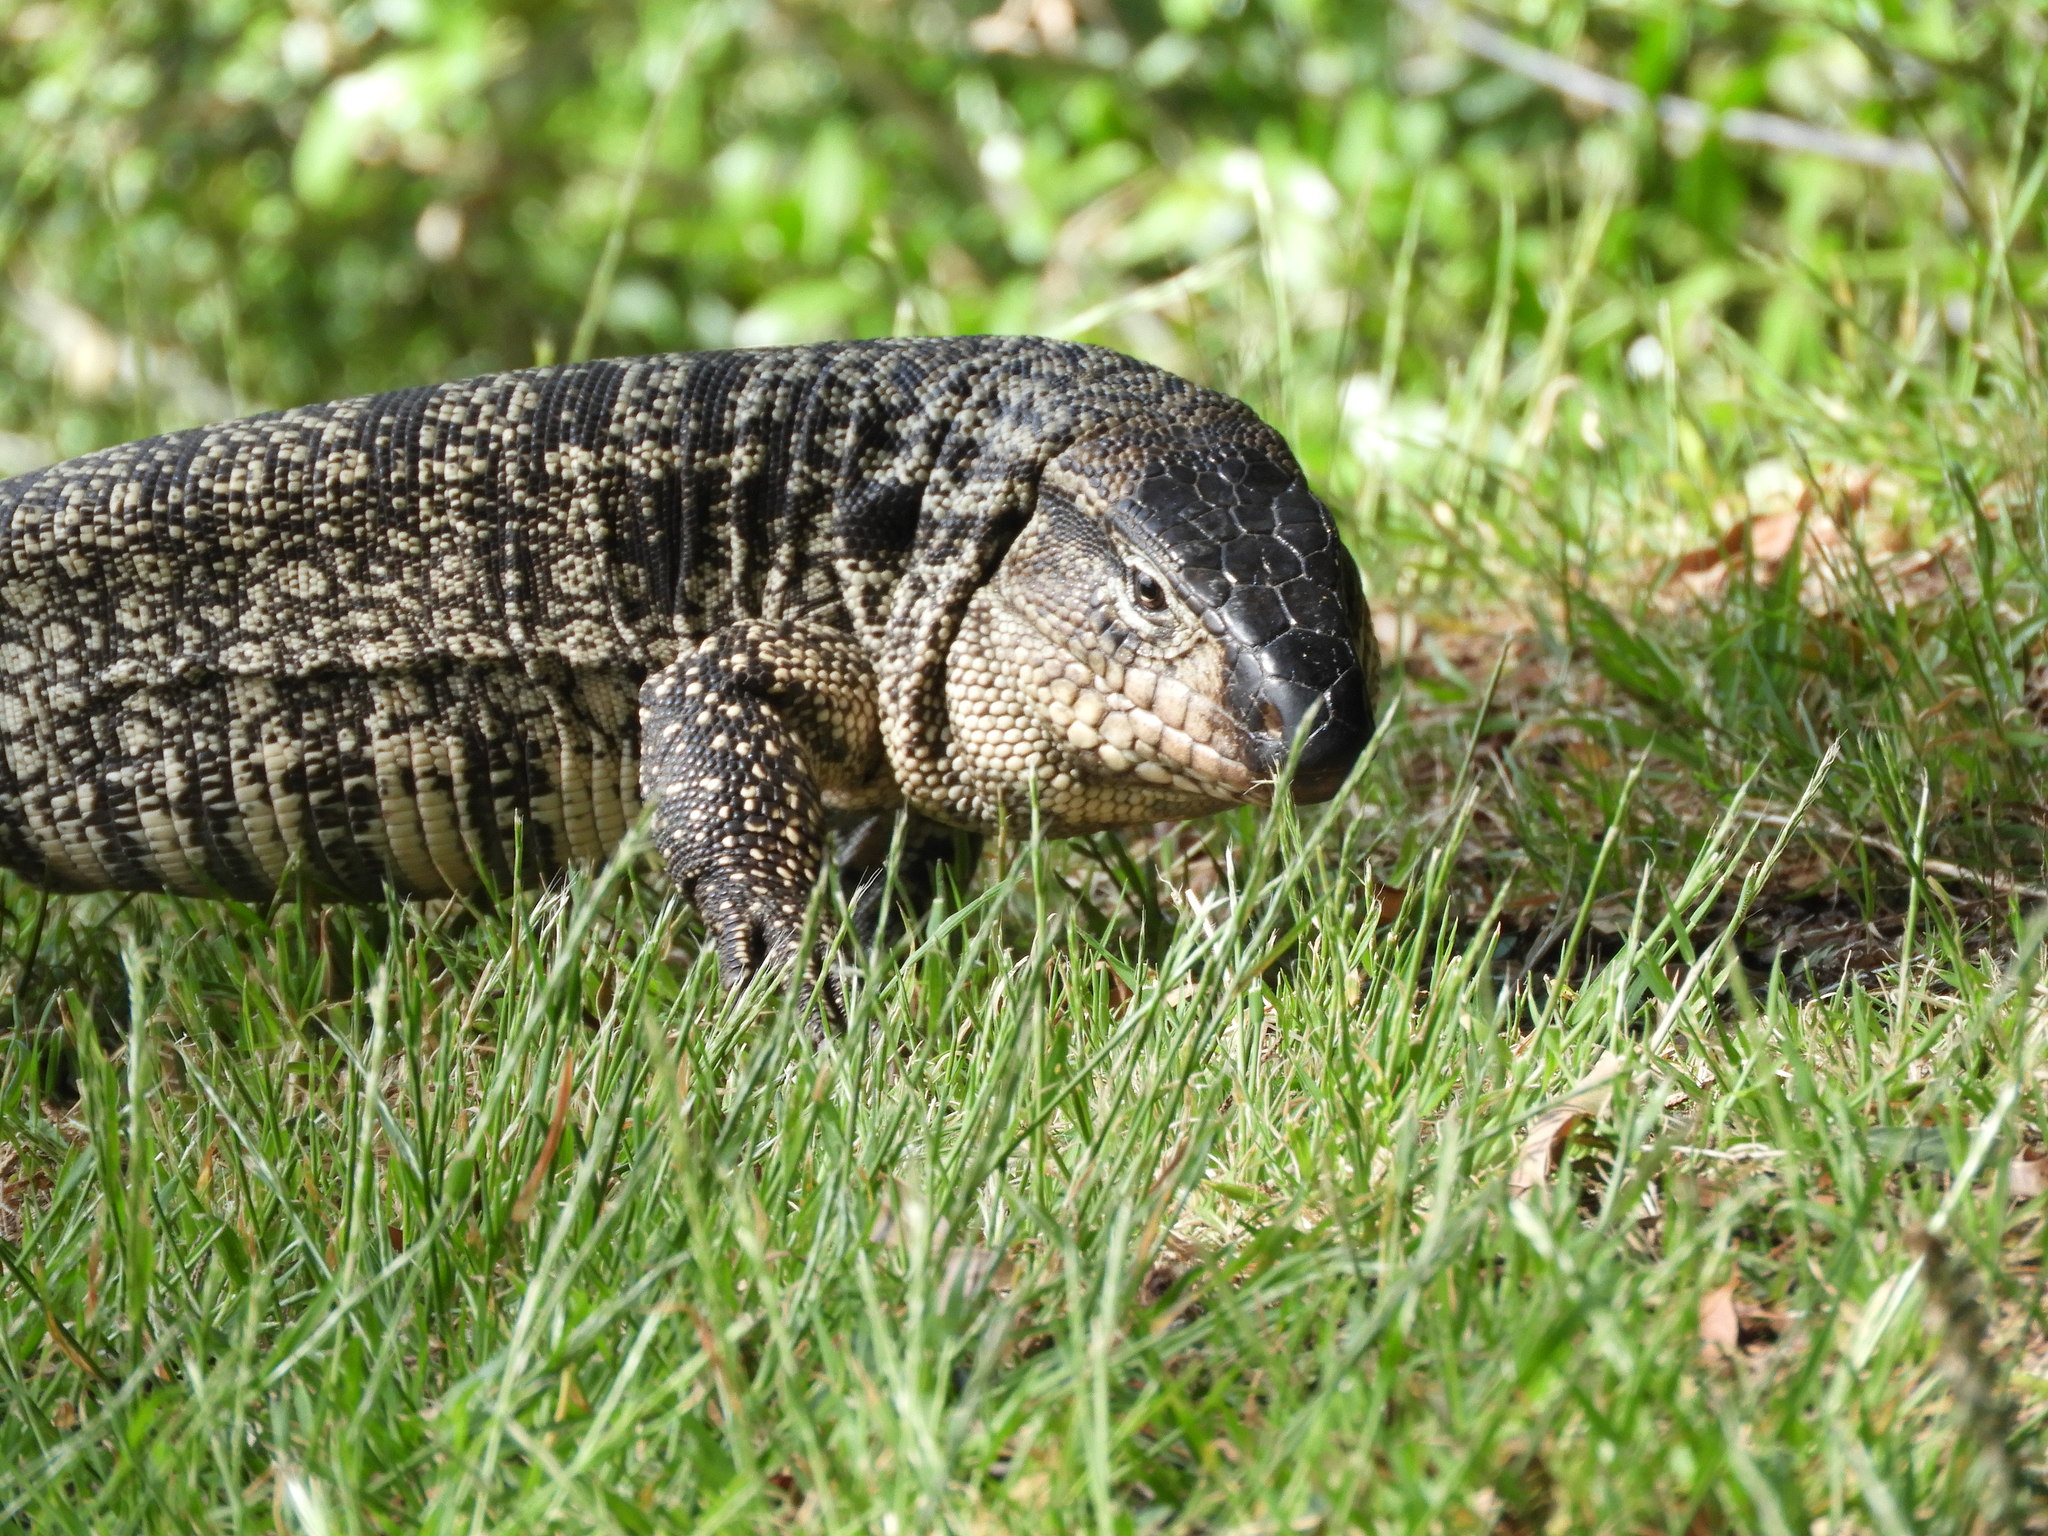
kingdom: Animalia
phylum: Chordata
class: Squamata
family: Teiidae
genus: Salvator
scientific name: Salvator merianae
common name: Argentine black and white tegu
